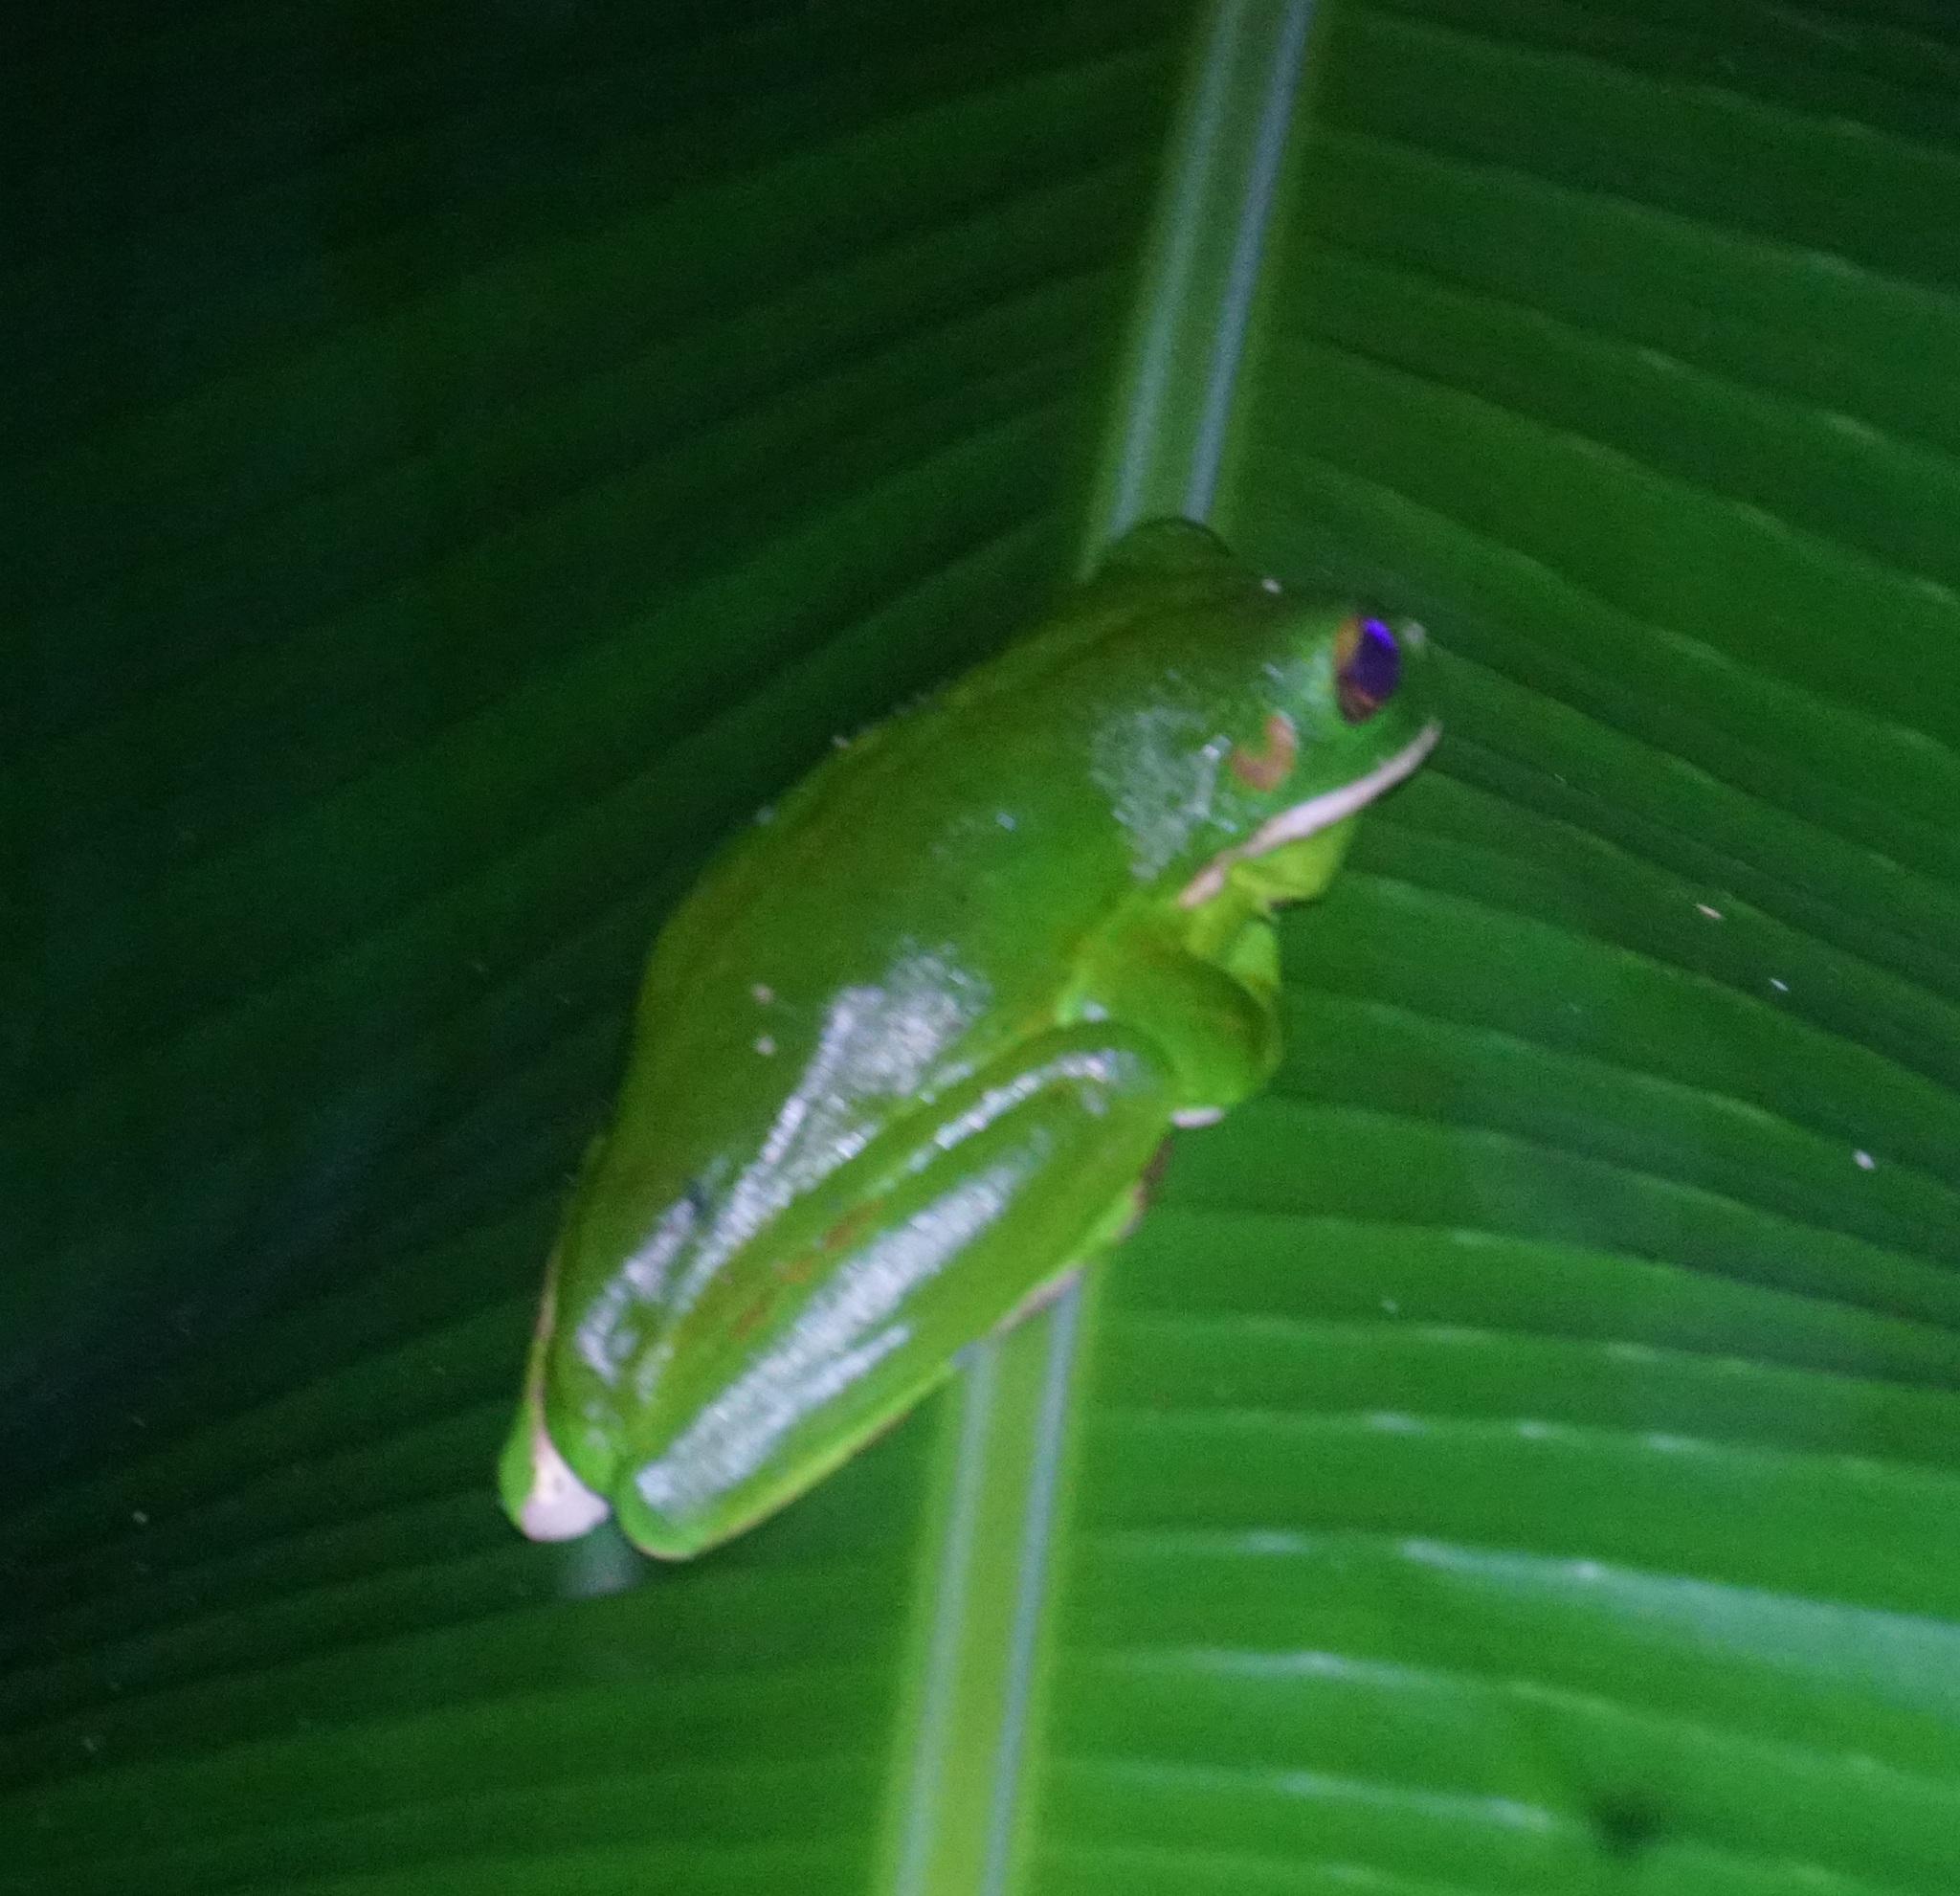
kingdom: Animalia
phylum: Chordata
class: Amphibia
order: Anura
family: Pelodryadidae
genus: Nyctimystes
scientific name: Nyctimystes infrafrenatus
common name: Australian giant treefrog
